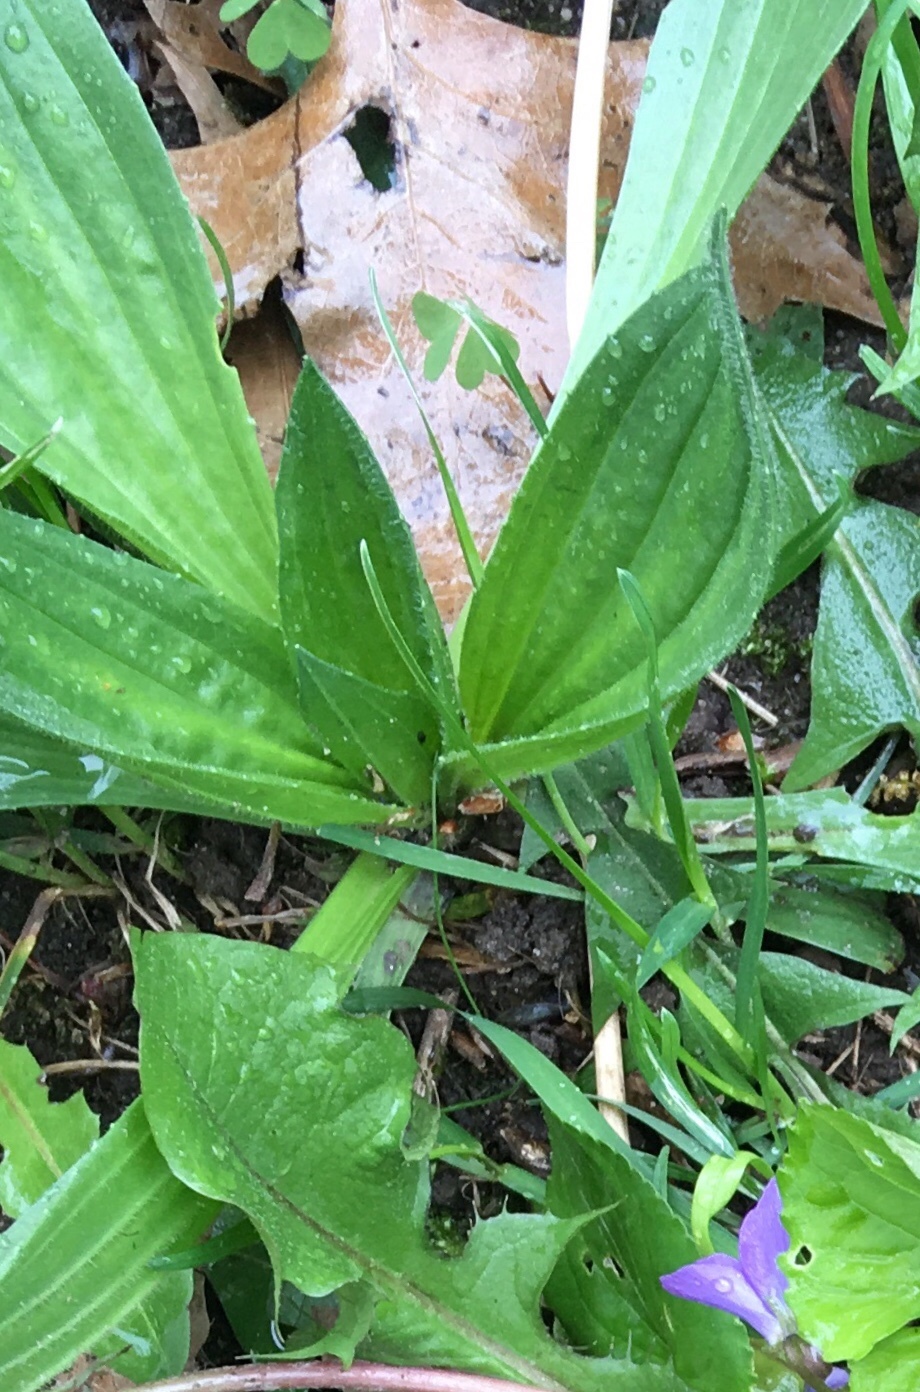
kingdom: Plantae
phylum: Tracheophyta
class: Magnoliopsida
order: Lamiales
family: Plantaginaceae
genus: Plantago
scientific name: Plantago lanceolata
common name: Ribwort plantain
